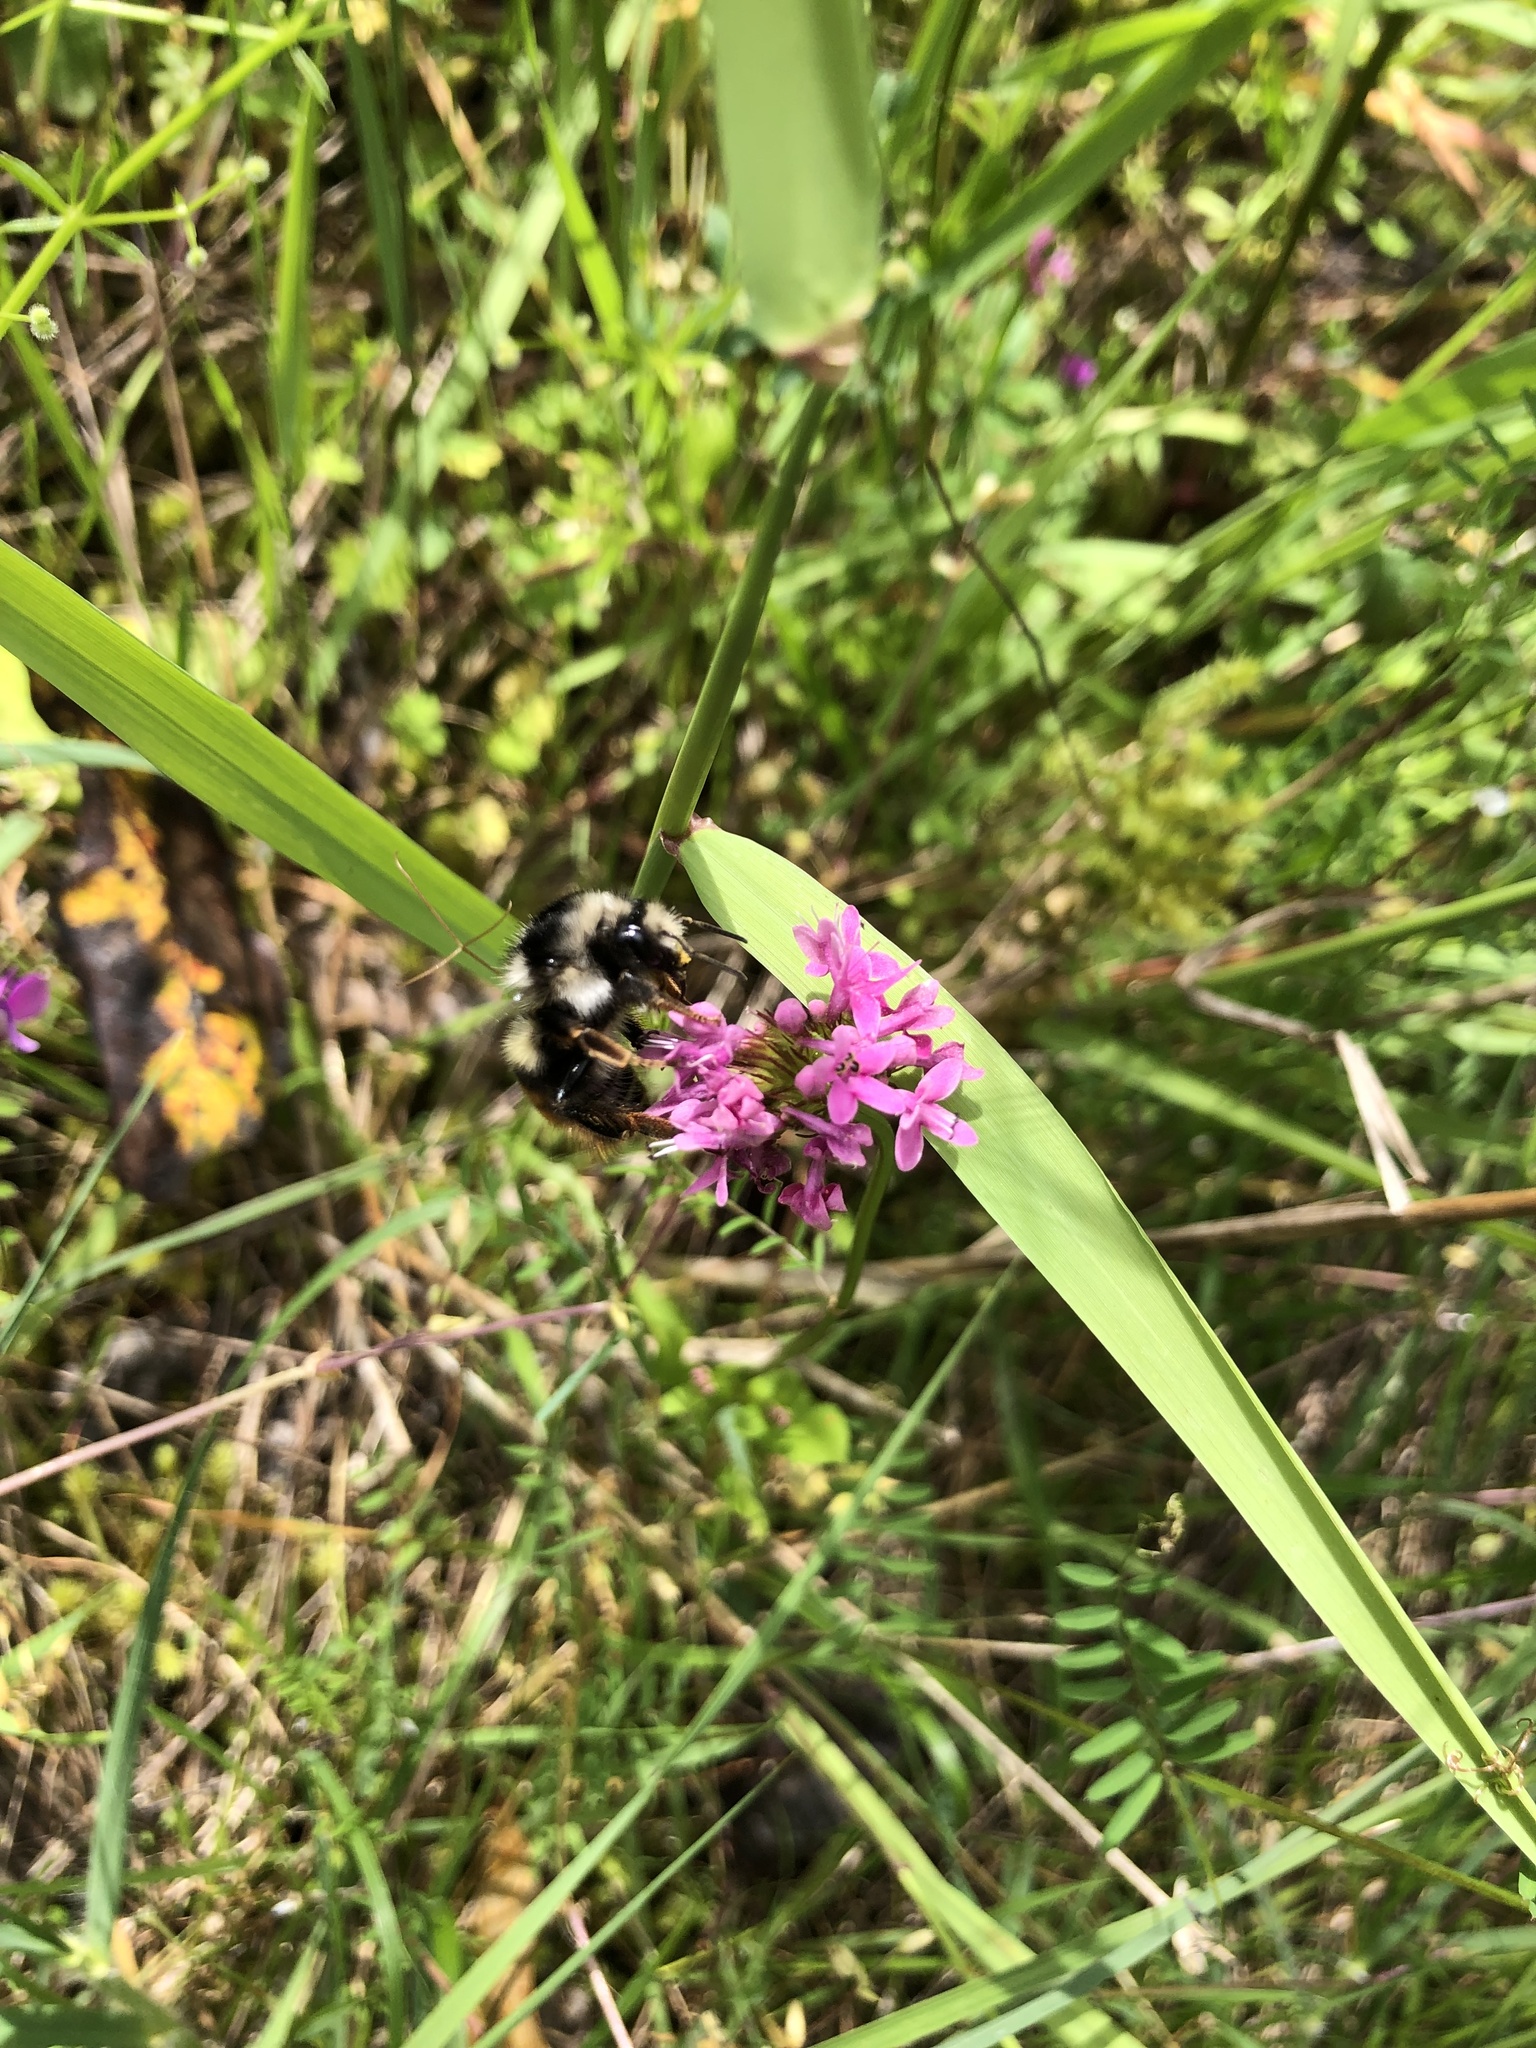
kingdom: Animalia
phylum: Arthropoda
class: Insecta
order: Hymenoptera
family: Apidae
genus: Bombus
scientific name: Bombus vancouverensis
